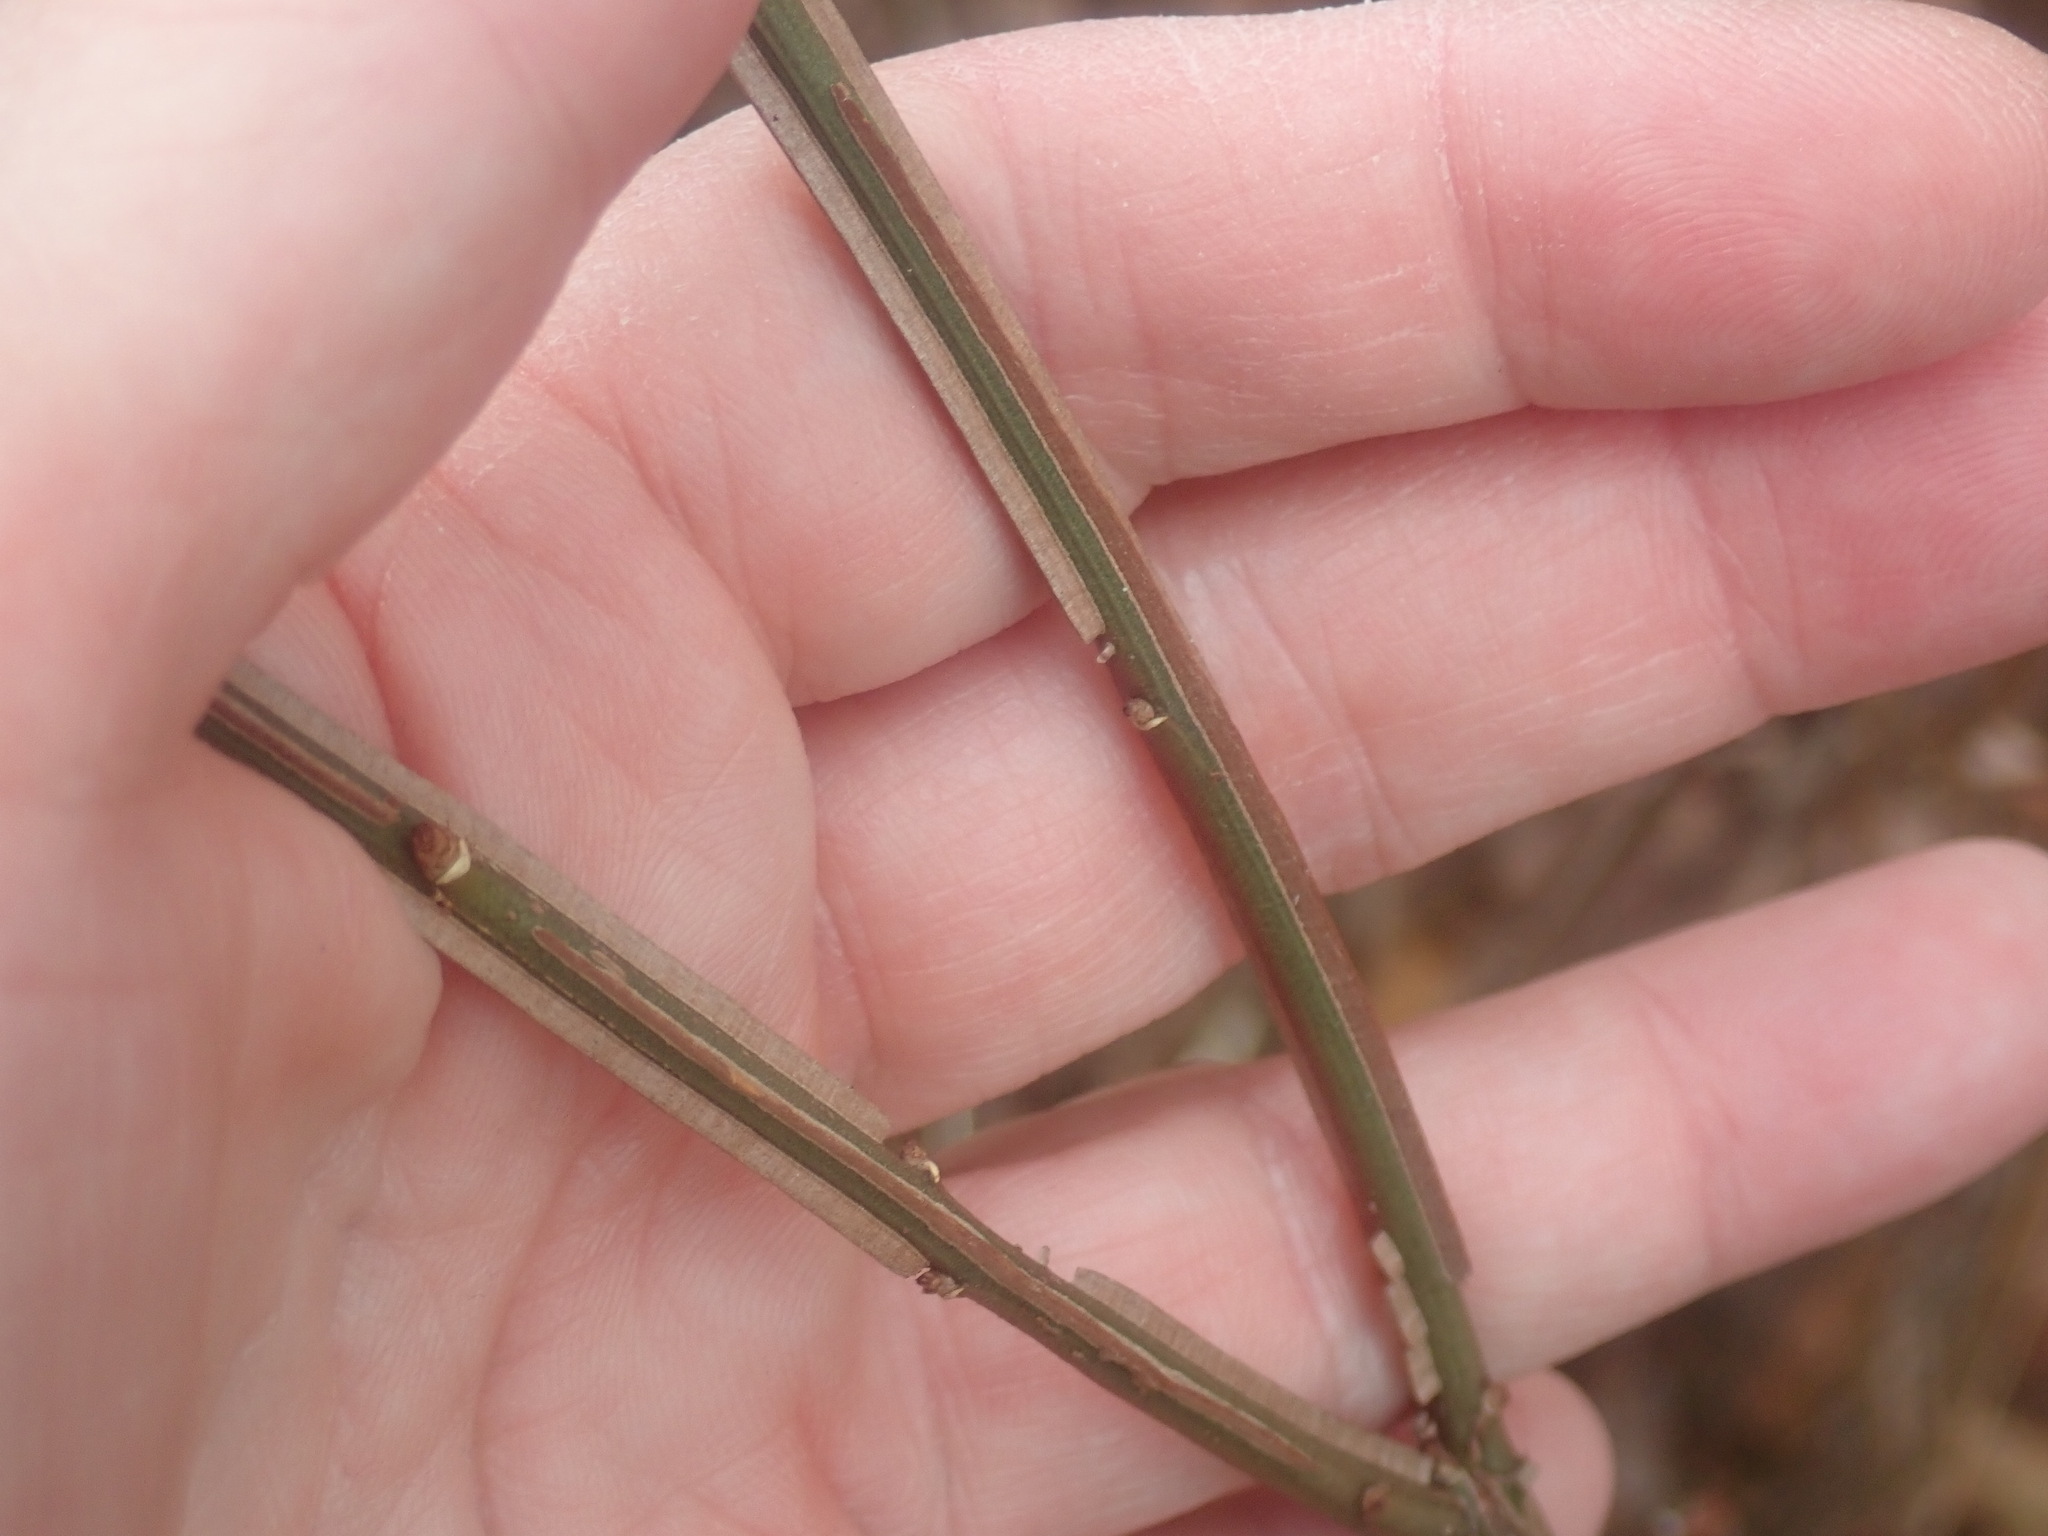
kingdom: Plantae
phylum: Tracheophyta
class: Magnoliopsida
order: Celastrales
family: Celastraceae
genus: Euonymus
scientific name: Euonymus alatus
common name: Winged euonymus
